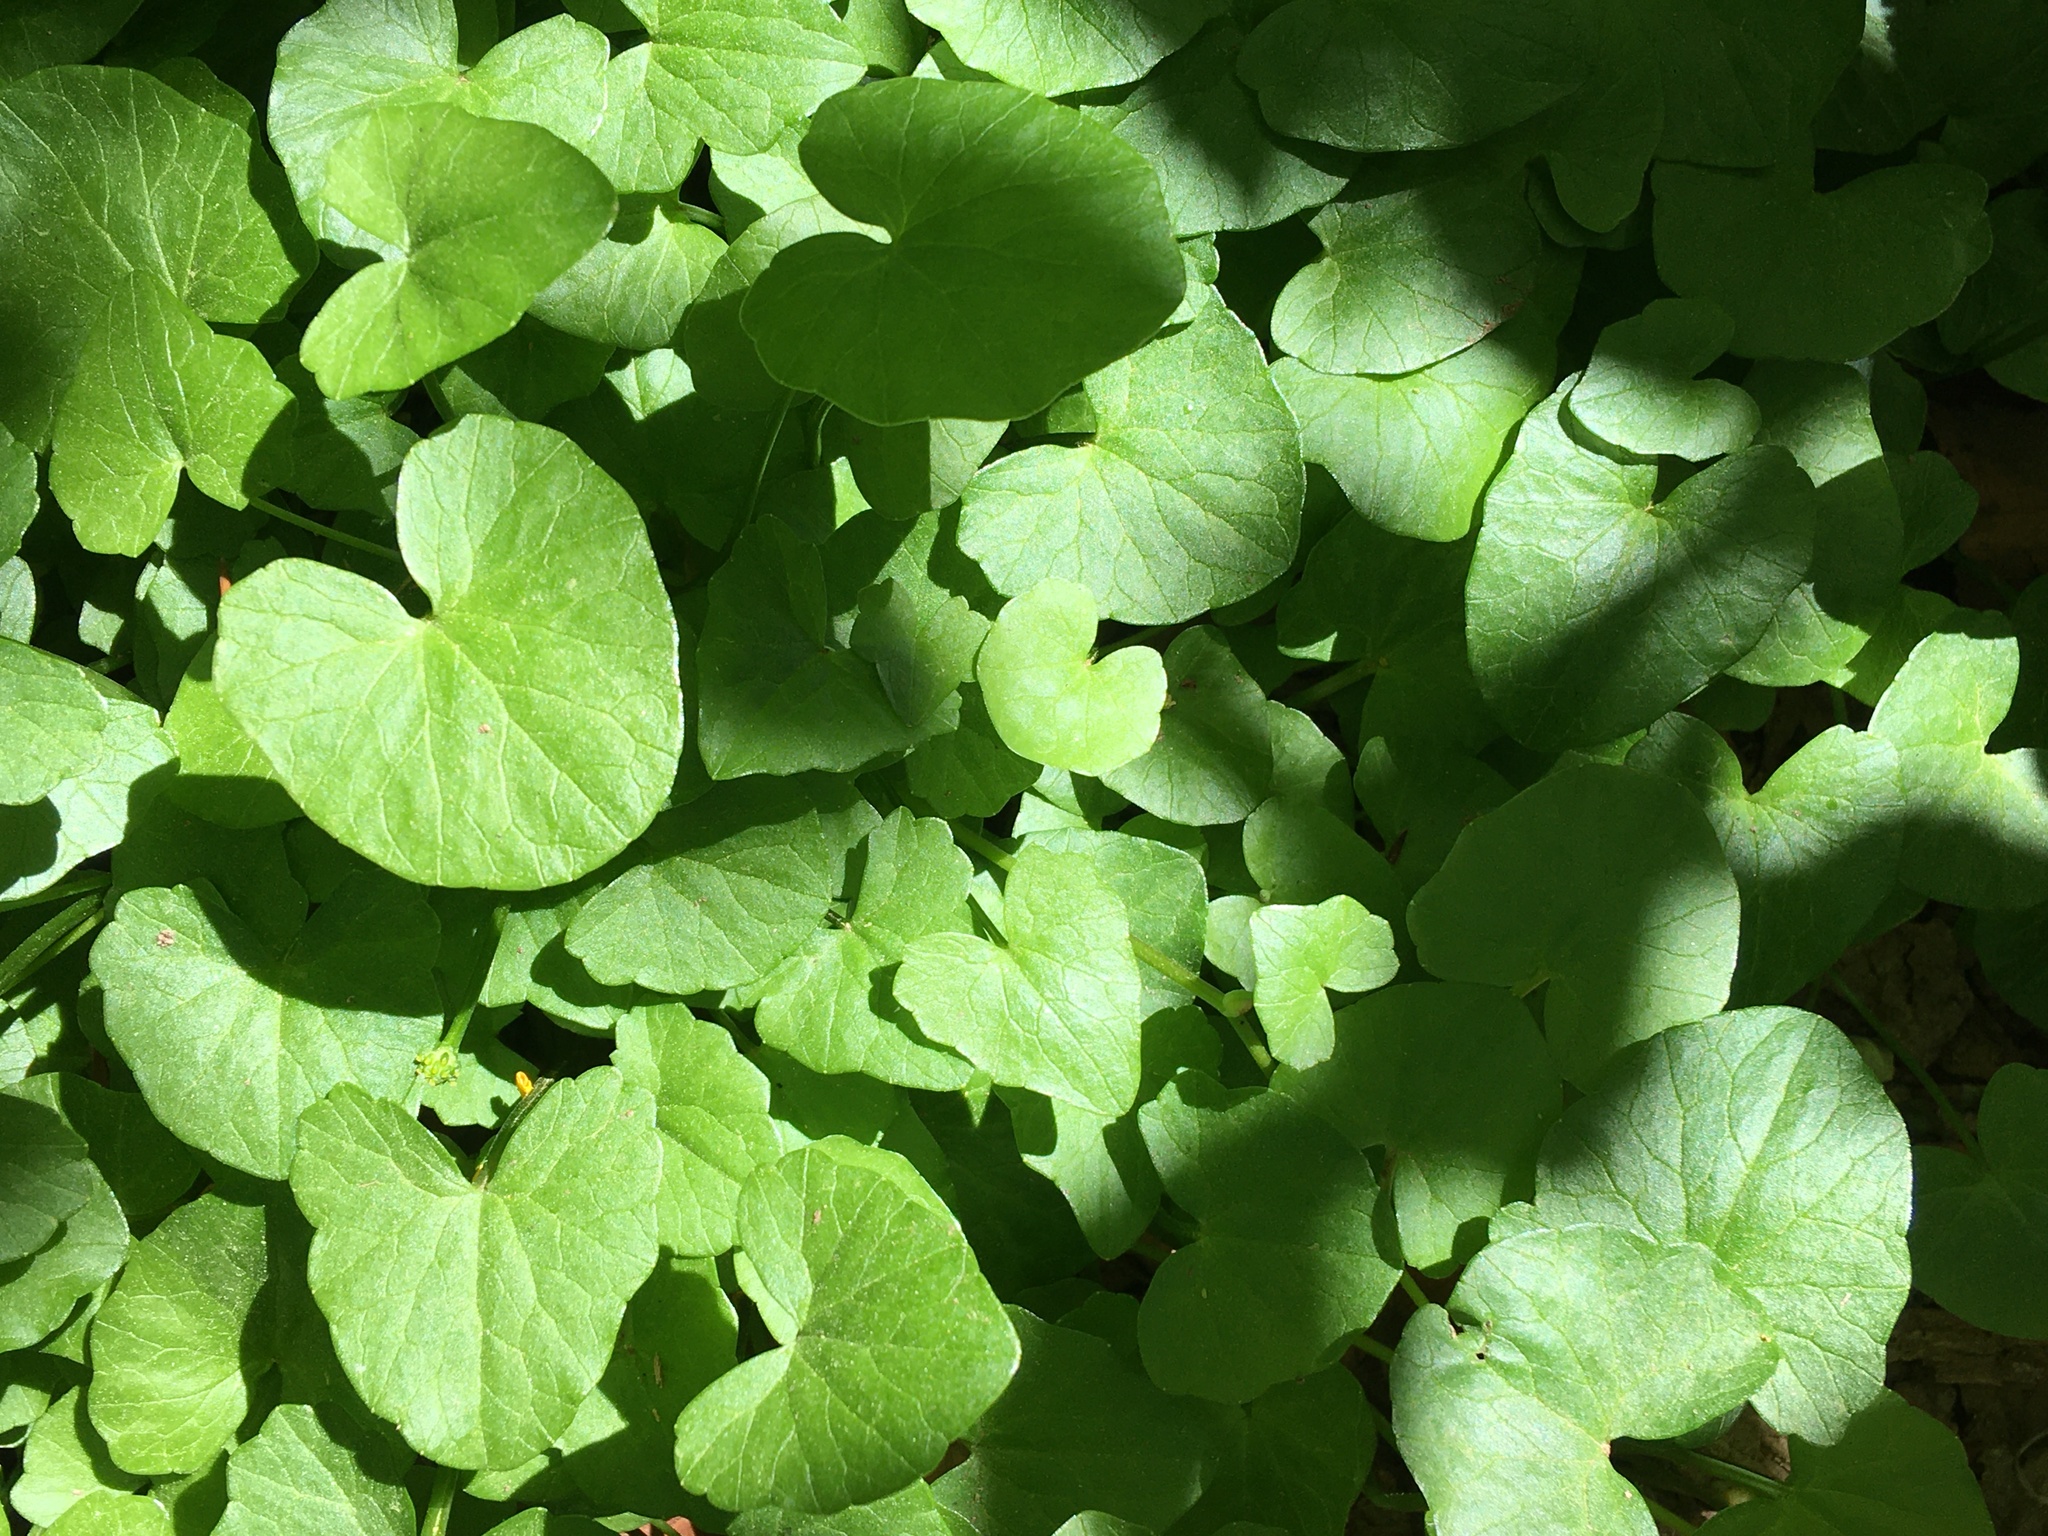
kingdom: Plantae
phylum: Tracheophyta
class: Magnoliopsida
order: Ranunculales
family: Ranunculaceae
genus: Ficaria
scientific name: Ficaria verna
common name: Lesser celandine
